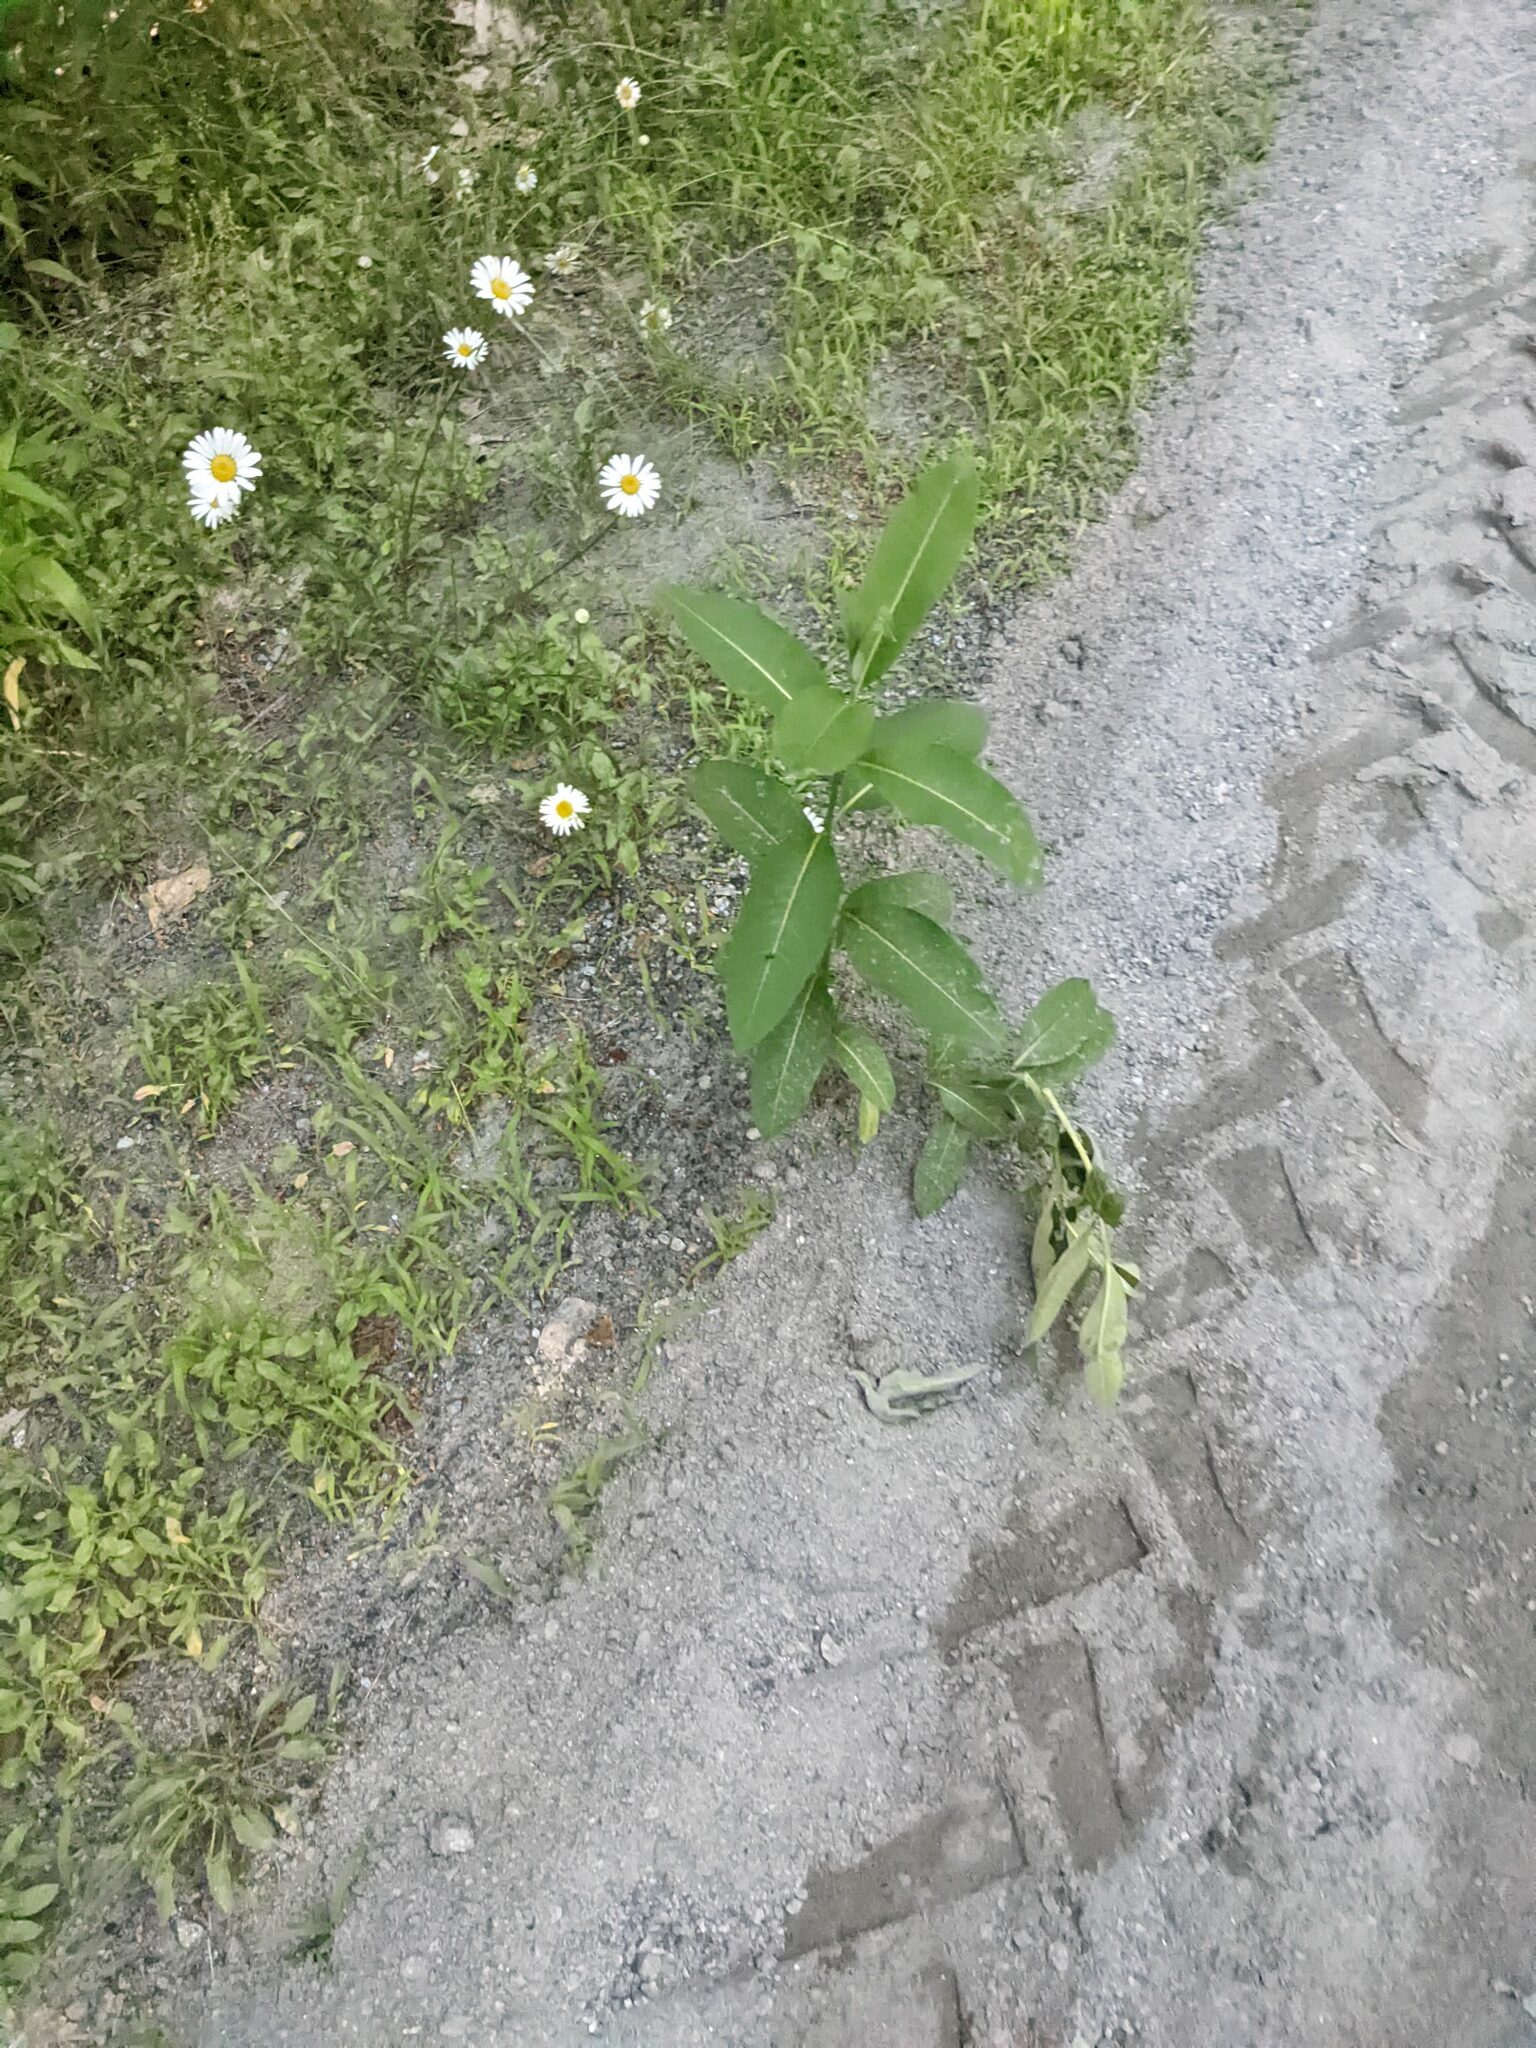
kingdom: Plantae
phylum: Tracheophyta
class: Magnoliopsida
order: Gentianales
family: Apocynaceae
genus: Asclepias
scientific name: Asclepias syriaca
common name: Common milkweed
